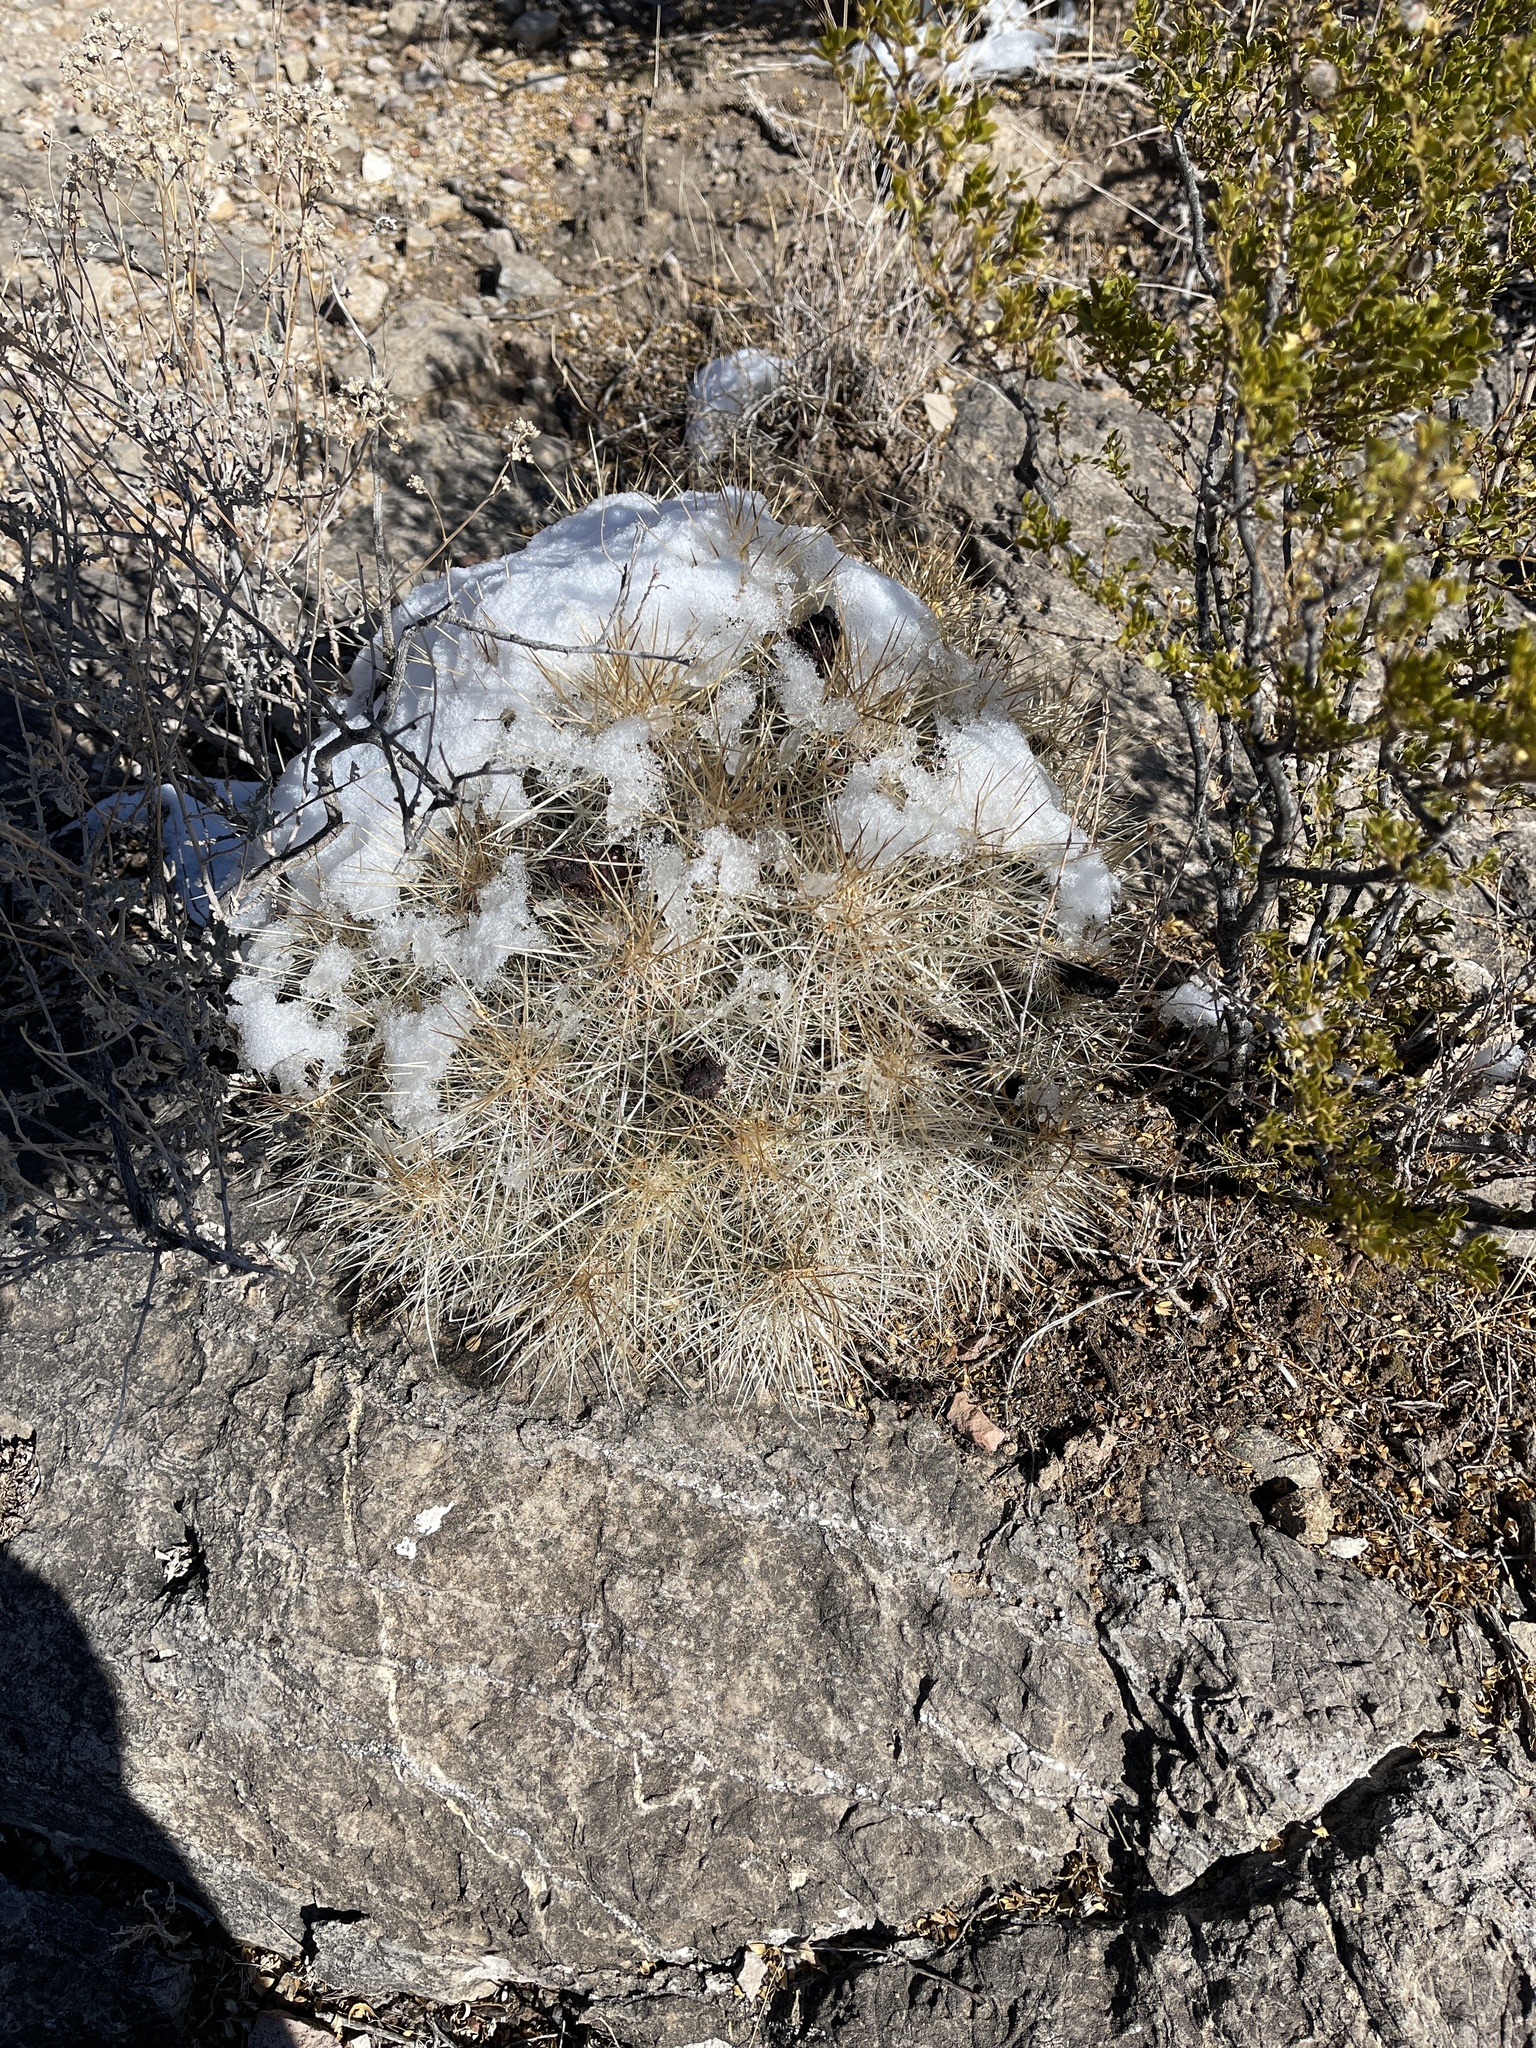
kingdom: Plantae
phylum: Tracheophyta
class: Magnoliopsida
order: Caryophyllales
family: Cactaceae
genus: Echinocereus
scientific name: Echinocereus stramineus
